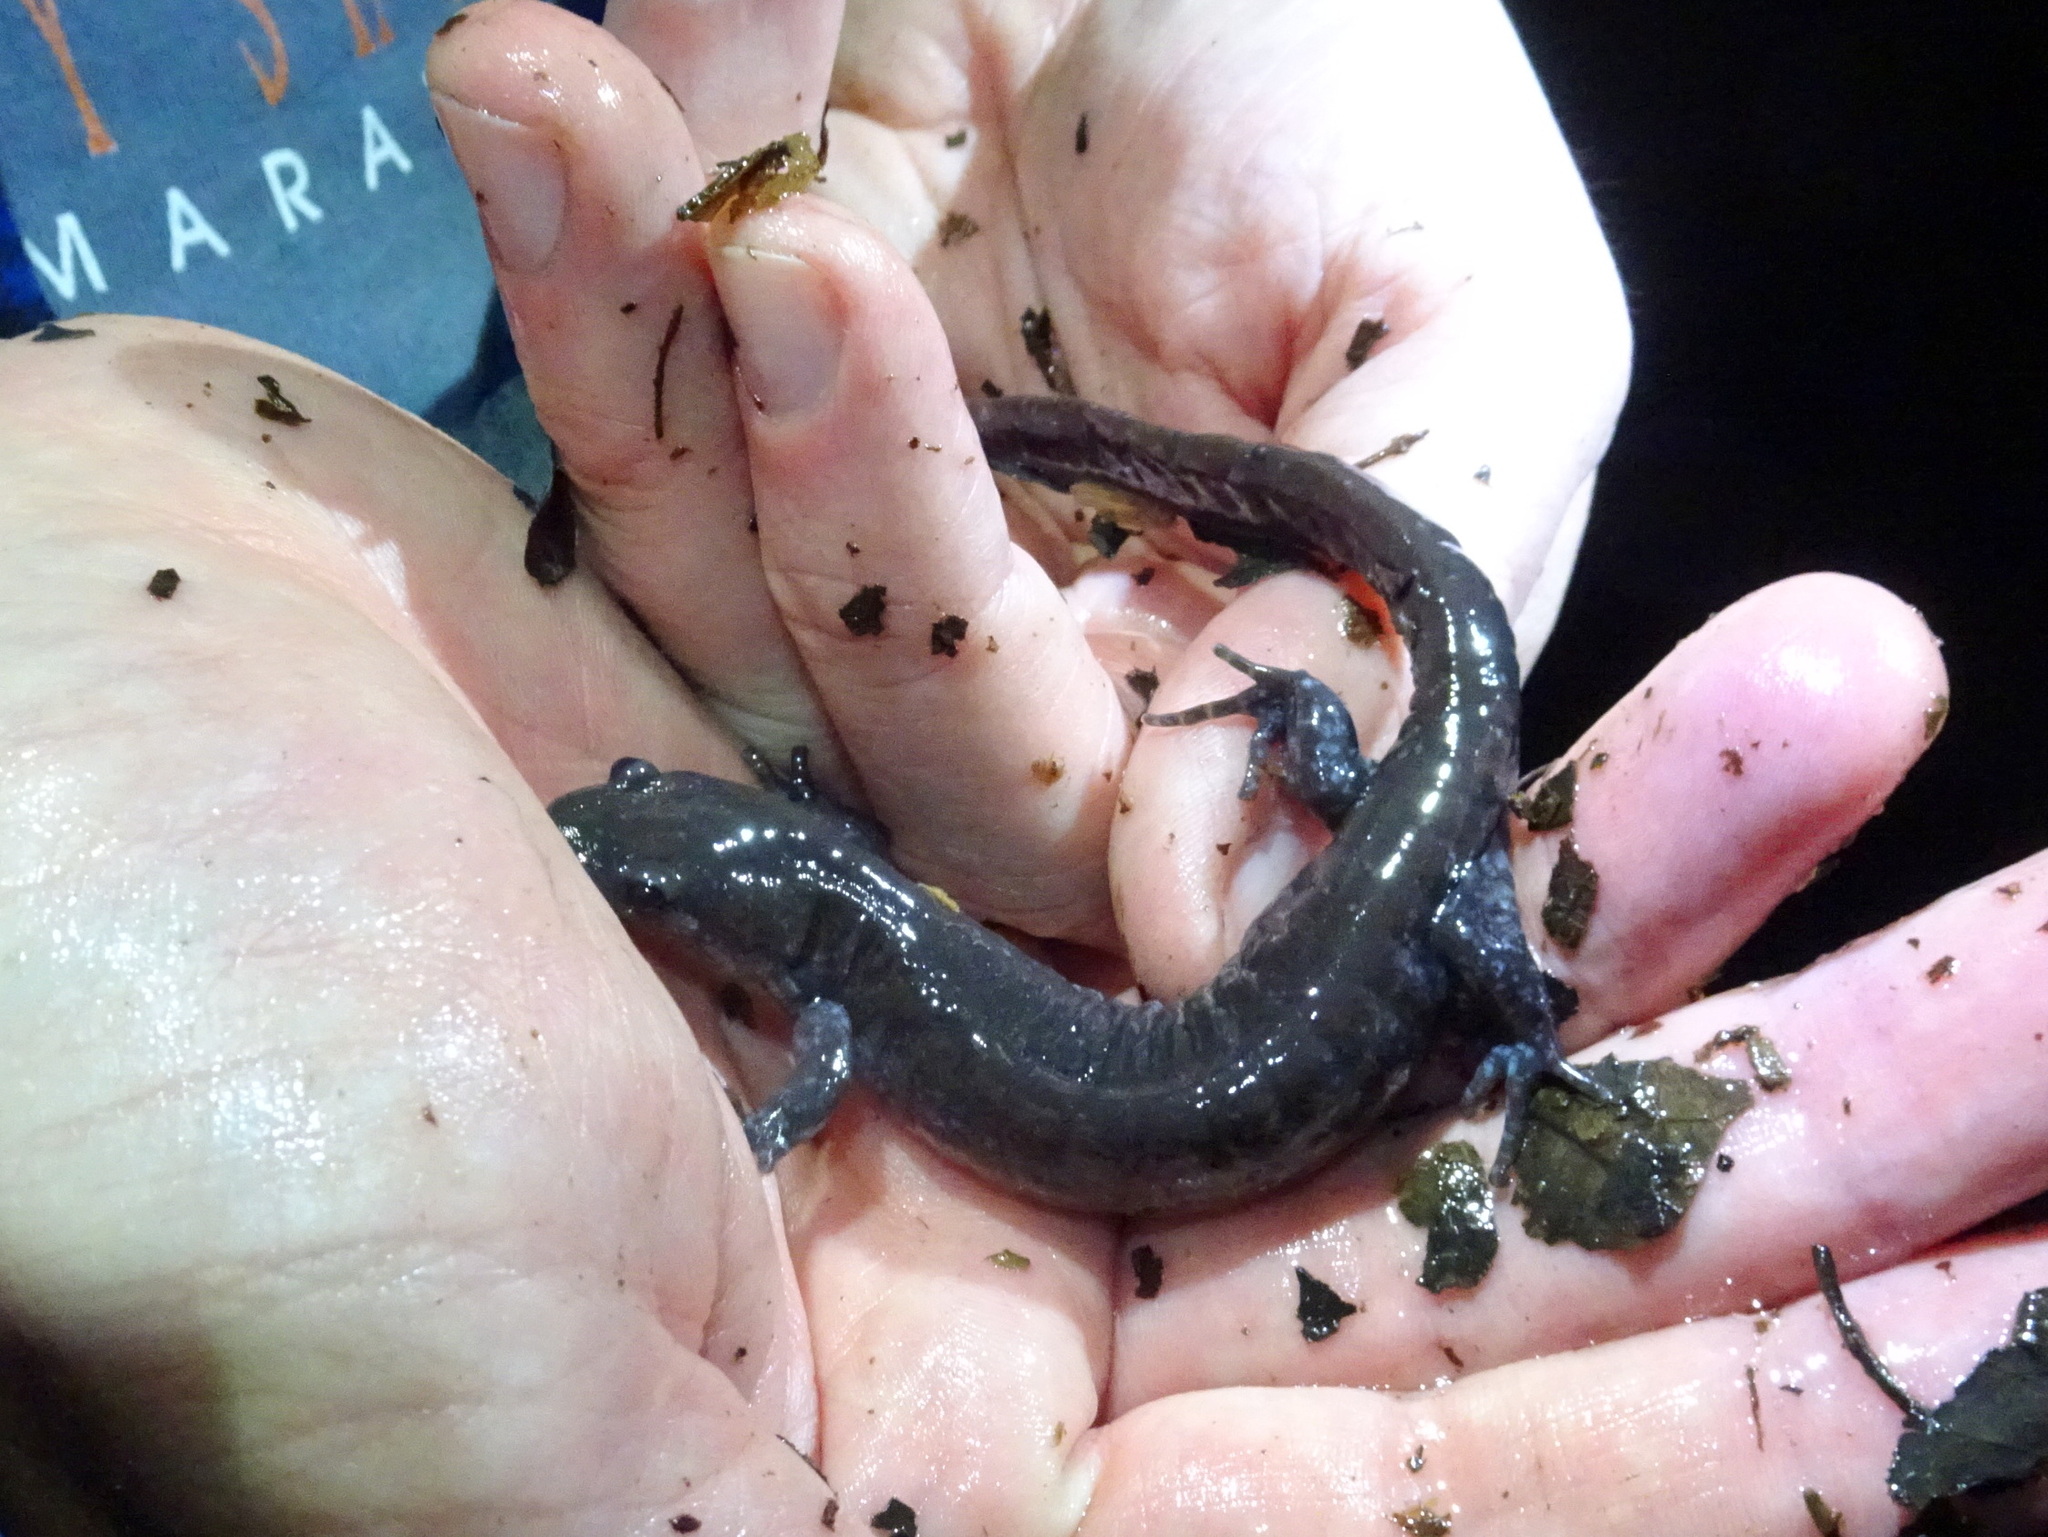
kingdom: Animalia
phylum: Chordata
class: Amphibia
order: Caudata
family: Ambystomatidae
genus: Ambystoma
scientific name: Ambystoma laterale
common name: Blue-spotted salamander
